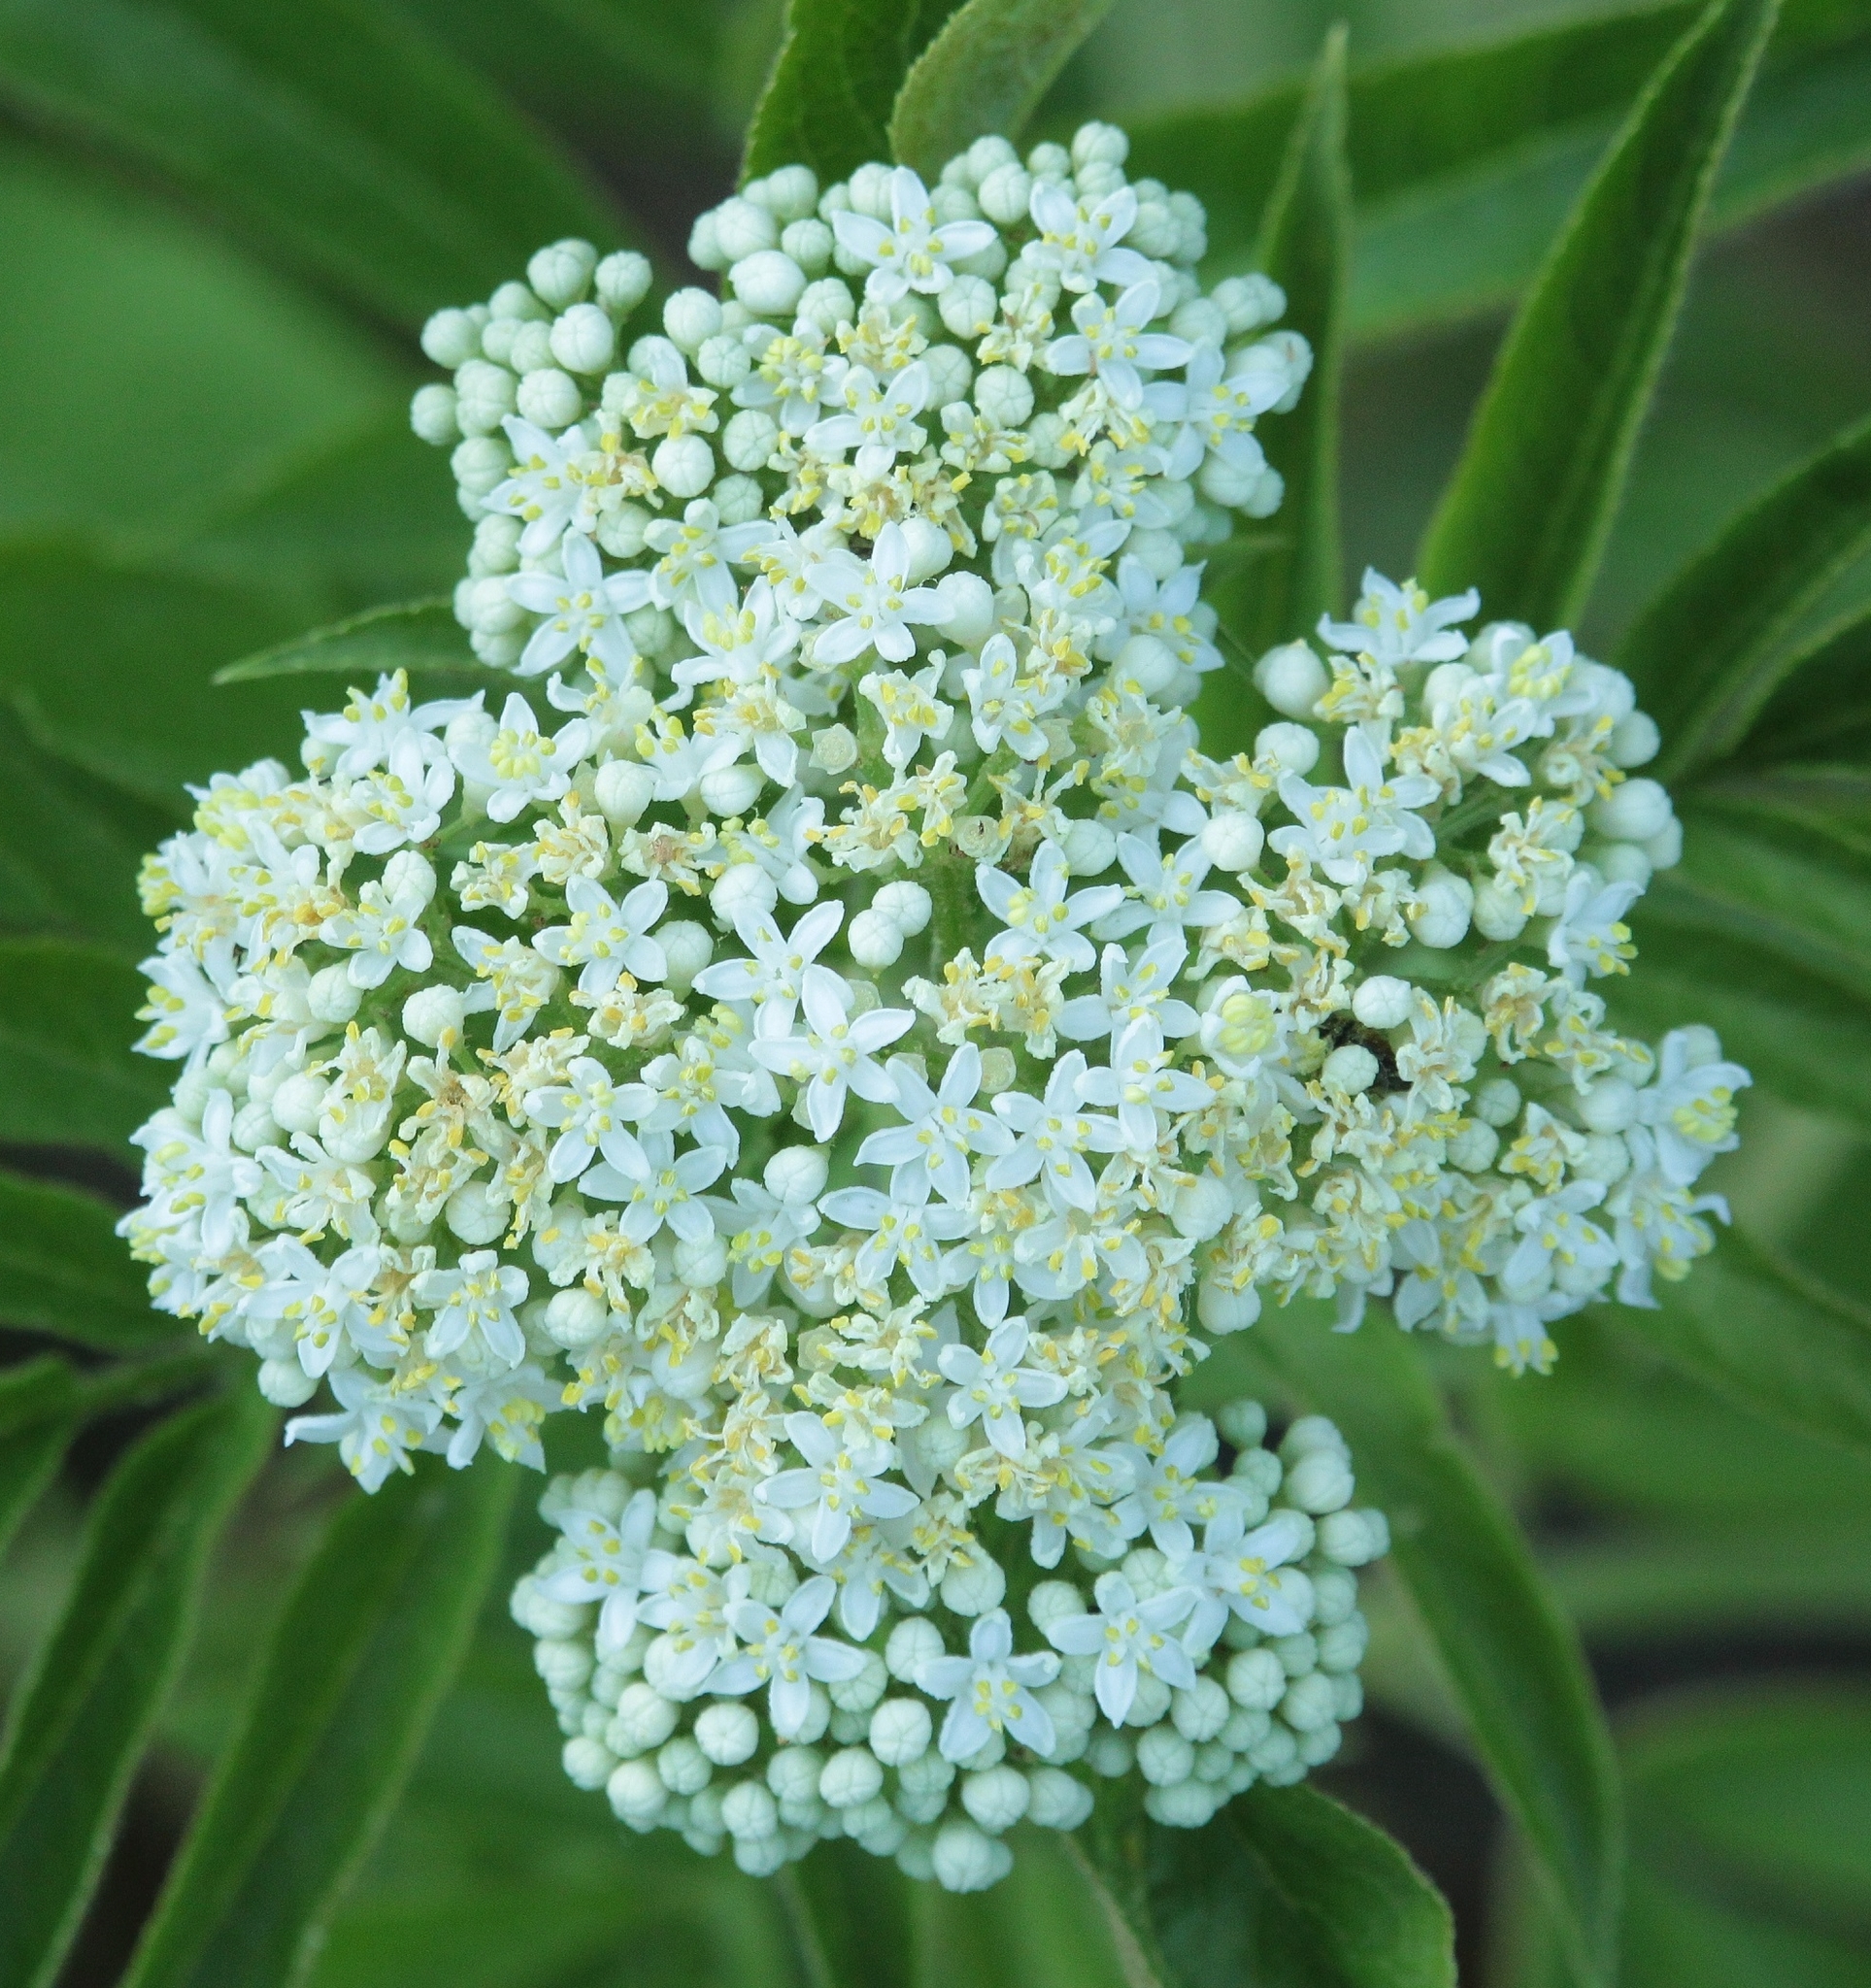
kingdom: Plantae
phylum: Tracheophyta
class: Magnoliopsida
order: Dipsacales
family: Viburnaceae
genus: Sambucus
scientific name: Sambucus ebulus
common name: Dwarf elder
